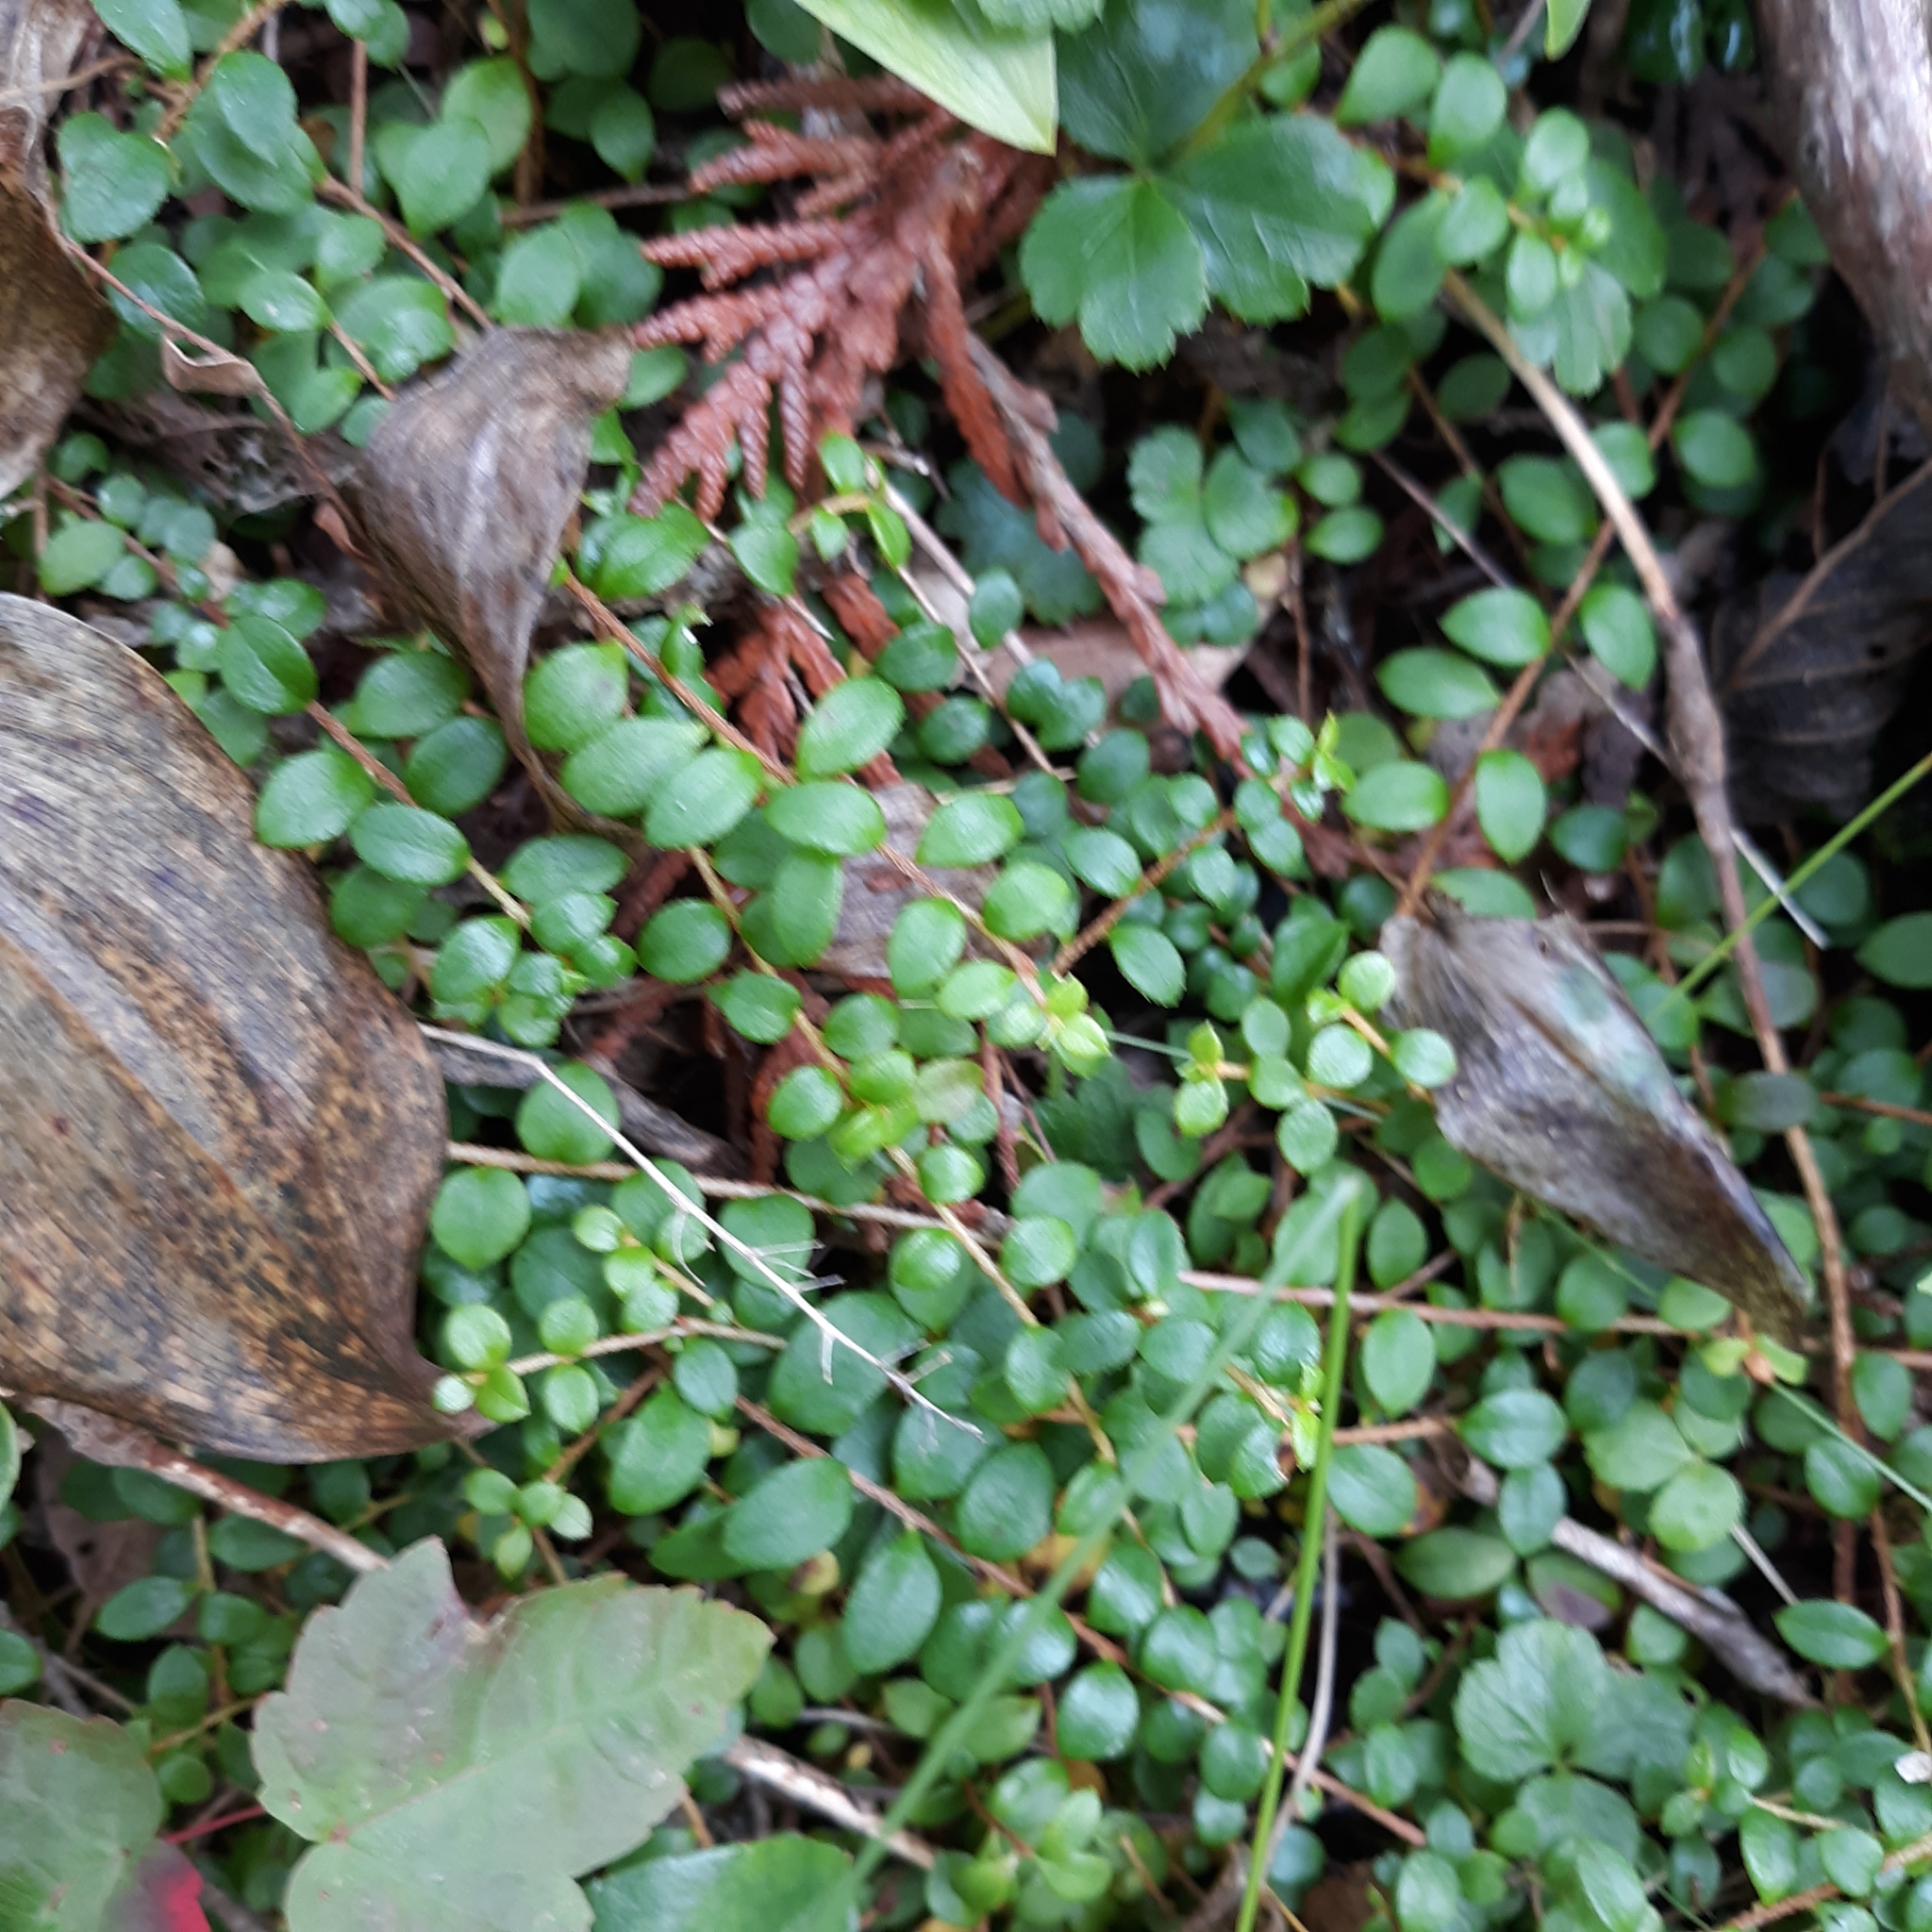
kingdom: Plantae
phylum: Tracheophyta
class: Magnoliopsida
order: Ericales
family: Ericaceae
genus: Gaultheria
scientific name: Gaultheria hispidula
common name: Cancer wintergreen
